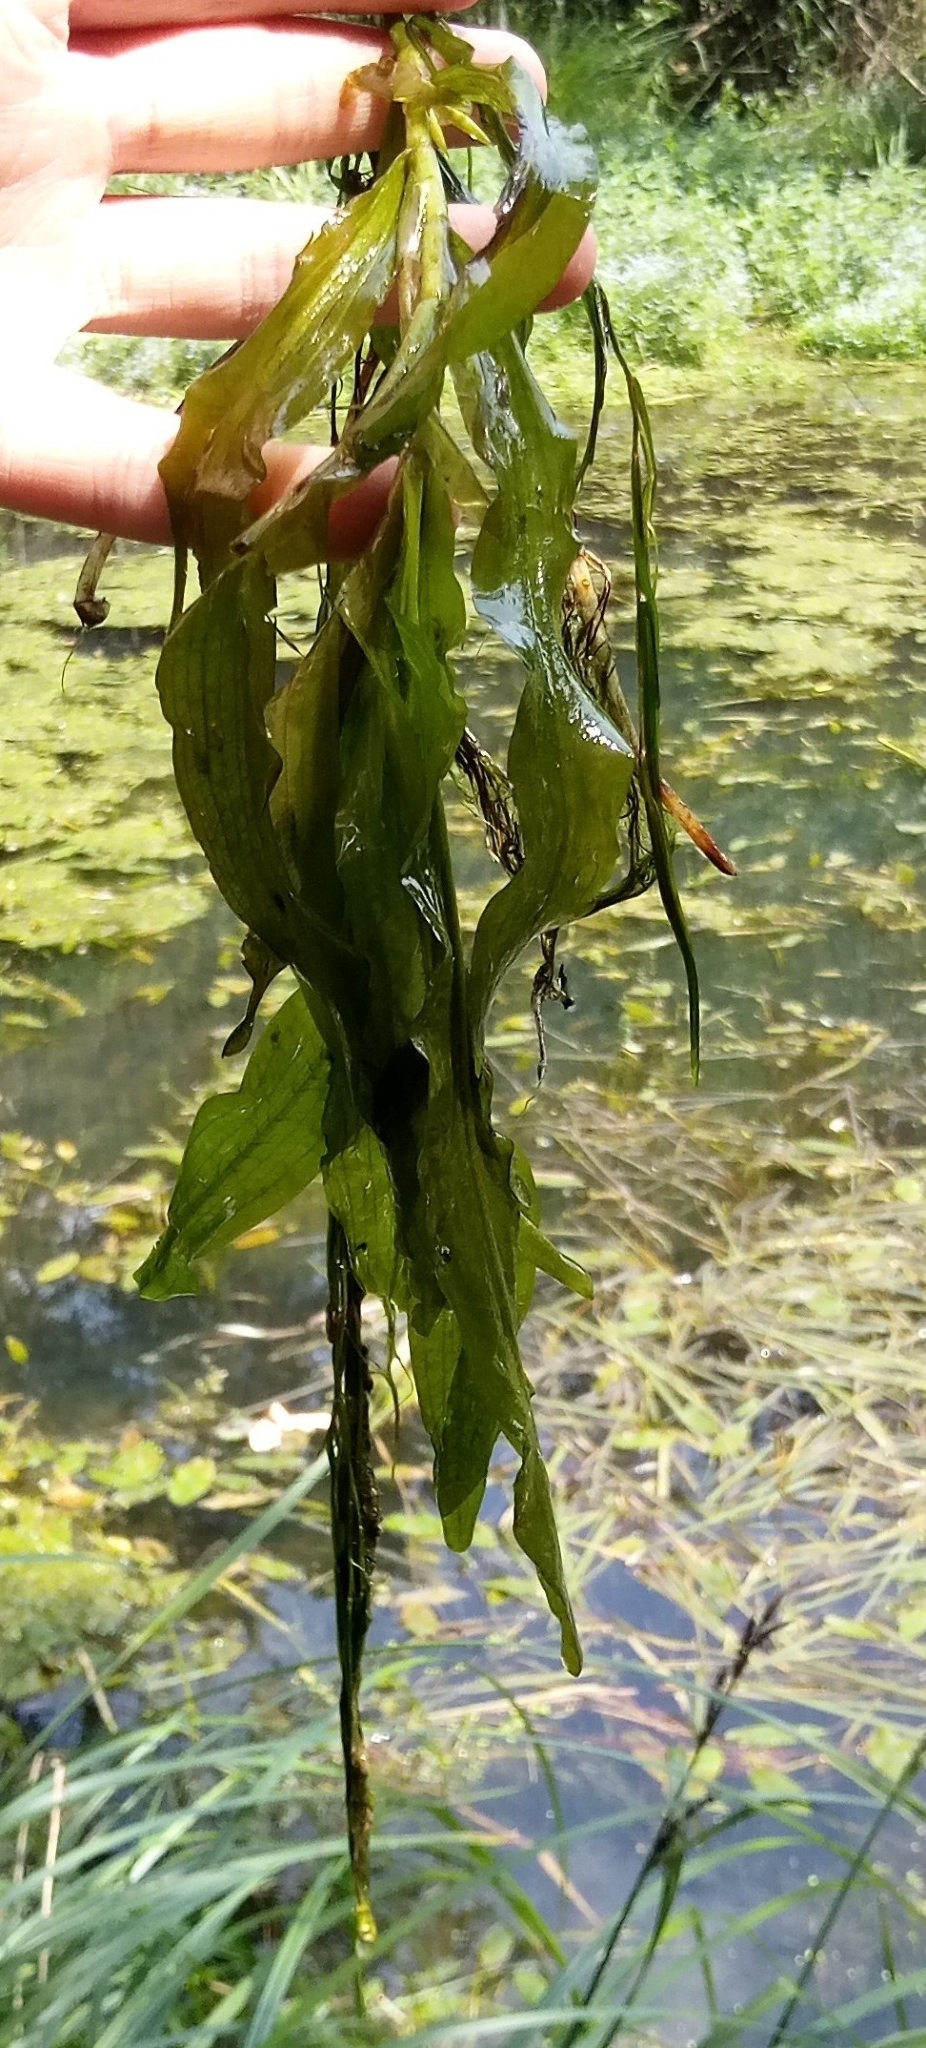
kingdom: Plantae
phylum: Tracheophyta
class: Liliopsida
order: Alismatales
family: Potamogetonaceae
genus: Potamogeton
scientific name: Potamogeton praelongus
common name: Long-stalked pondweed
